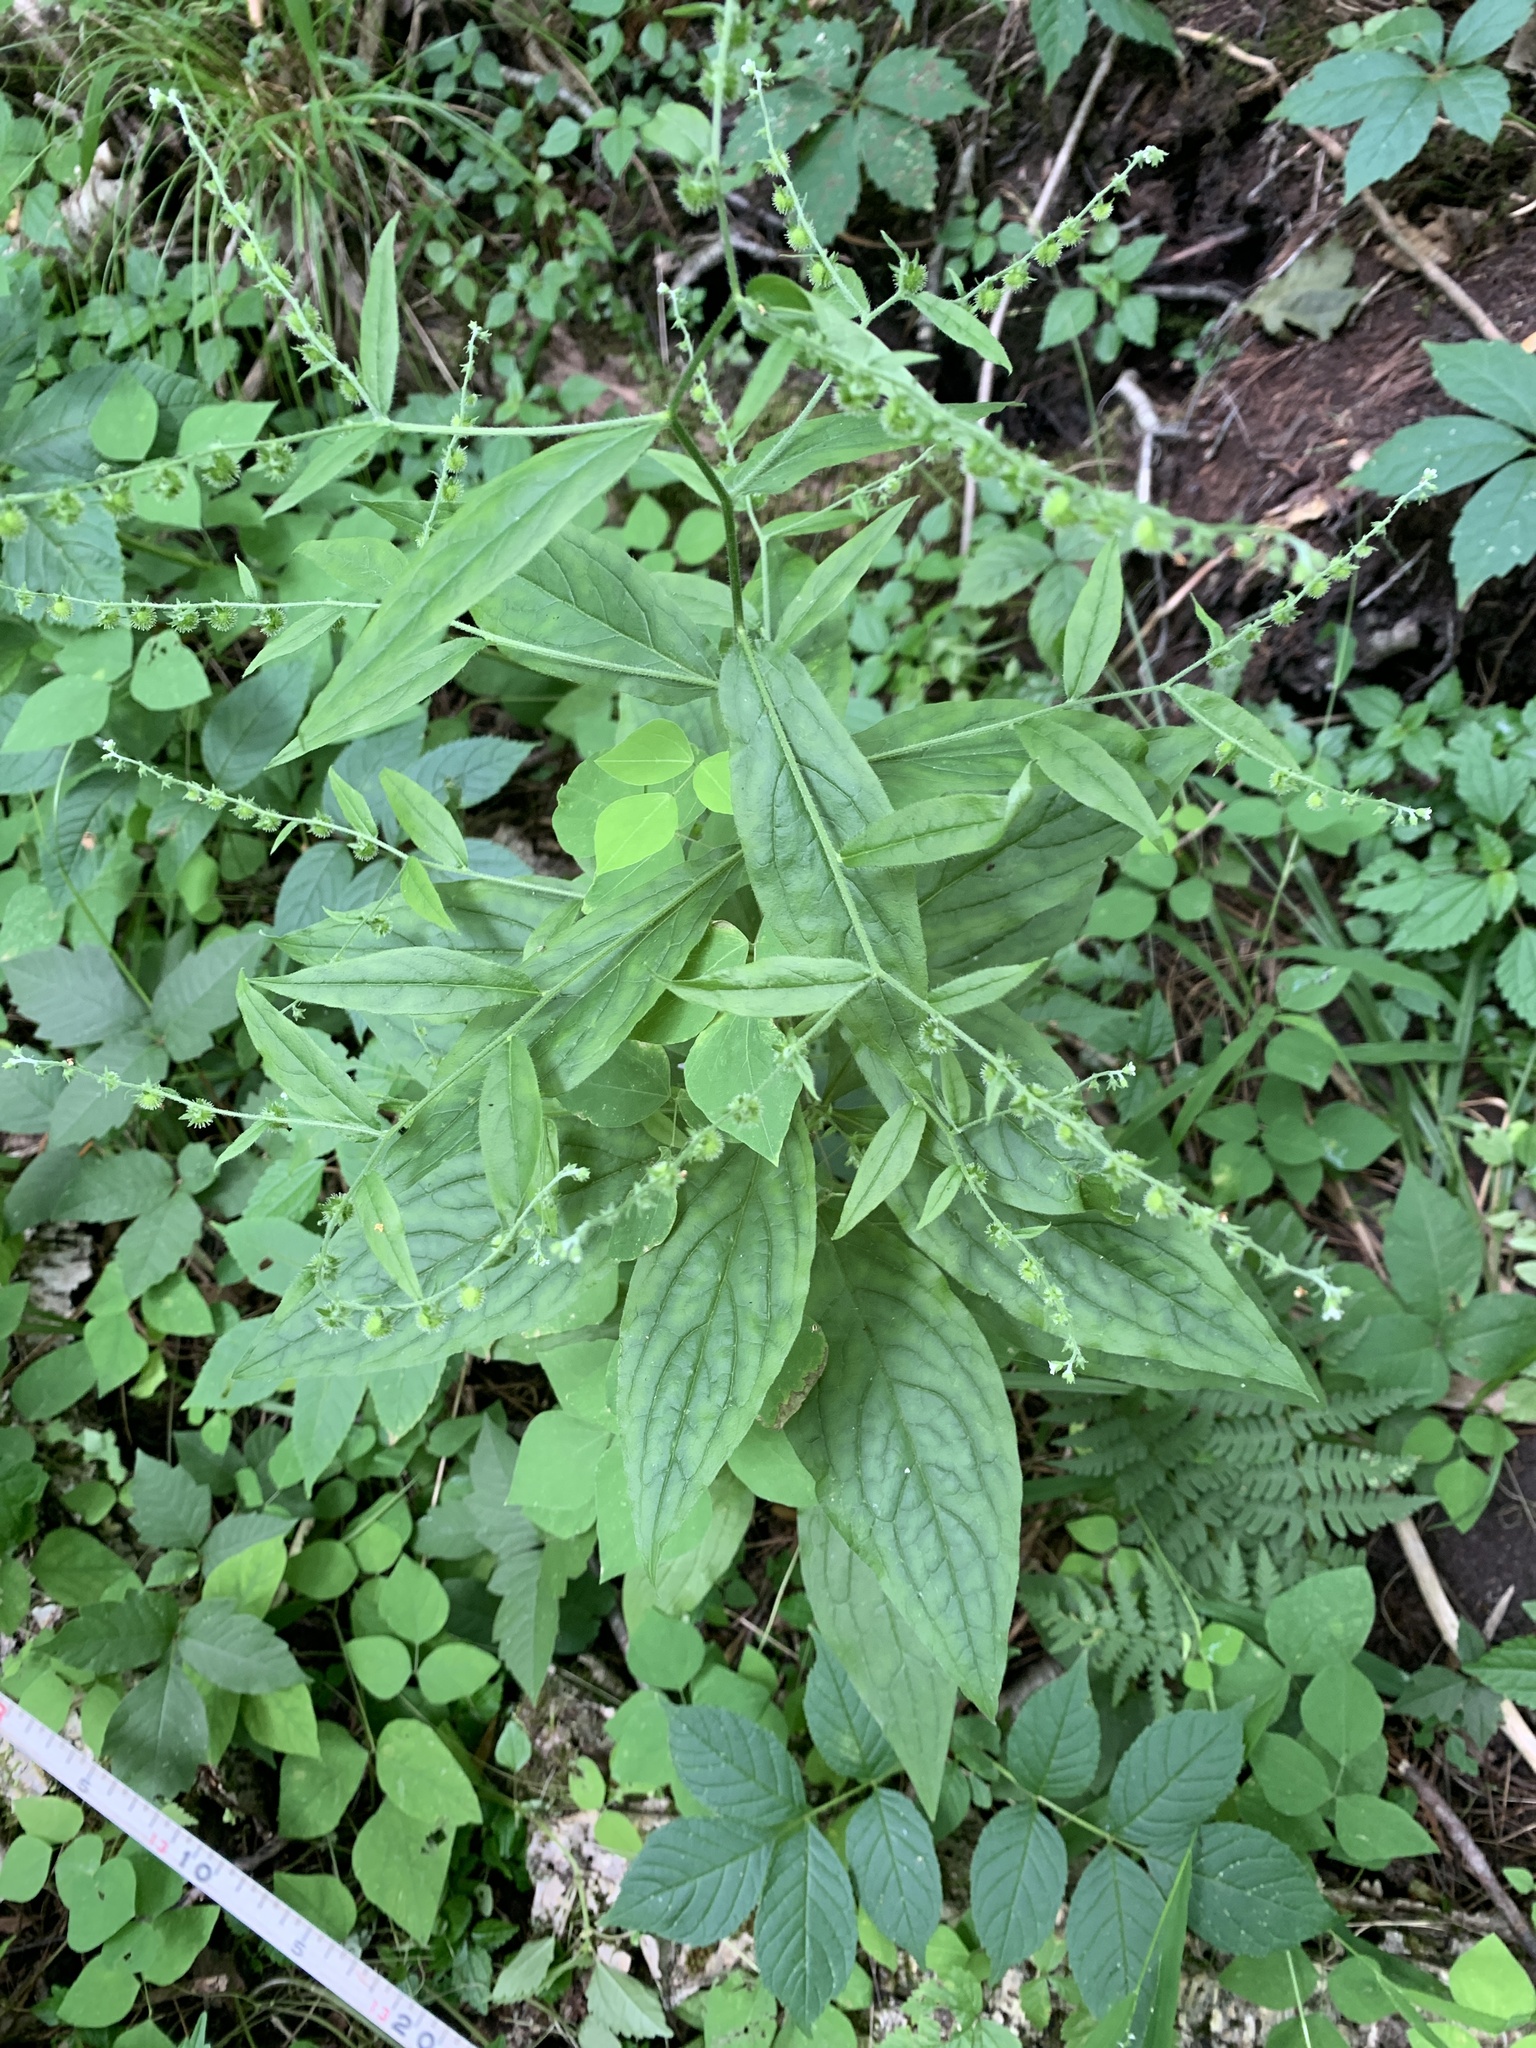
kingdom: Plantae
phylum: Tracheophyta
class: Magnoliopsida
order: Boraginales
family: Boraginaceae
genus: Hackelia
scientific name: Hackelia virginiana
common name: Beggar's-lice
